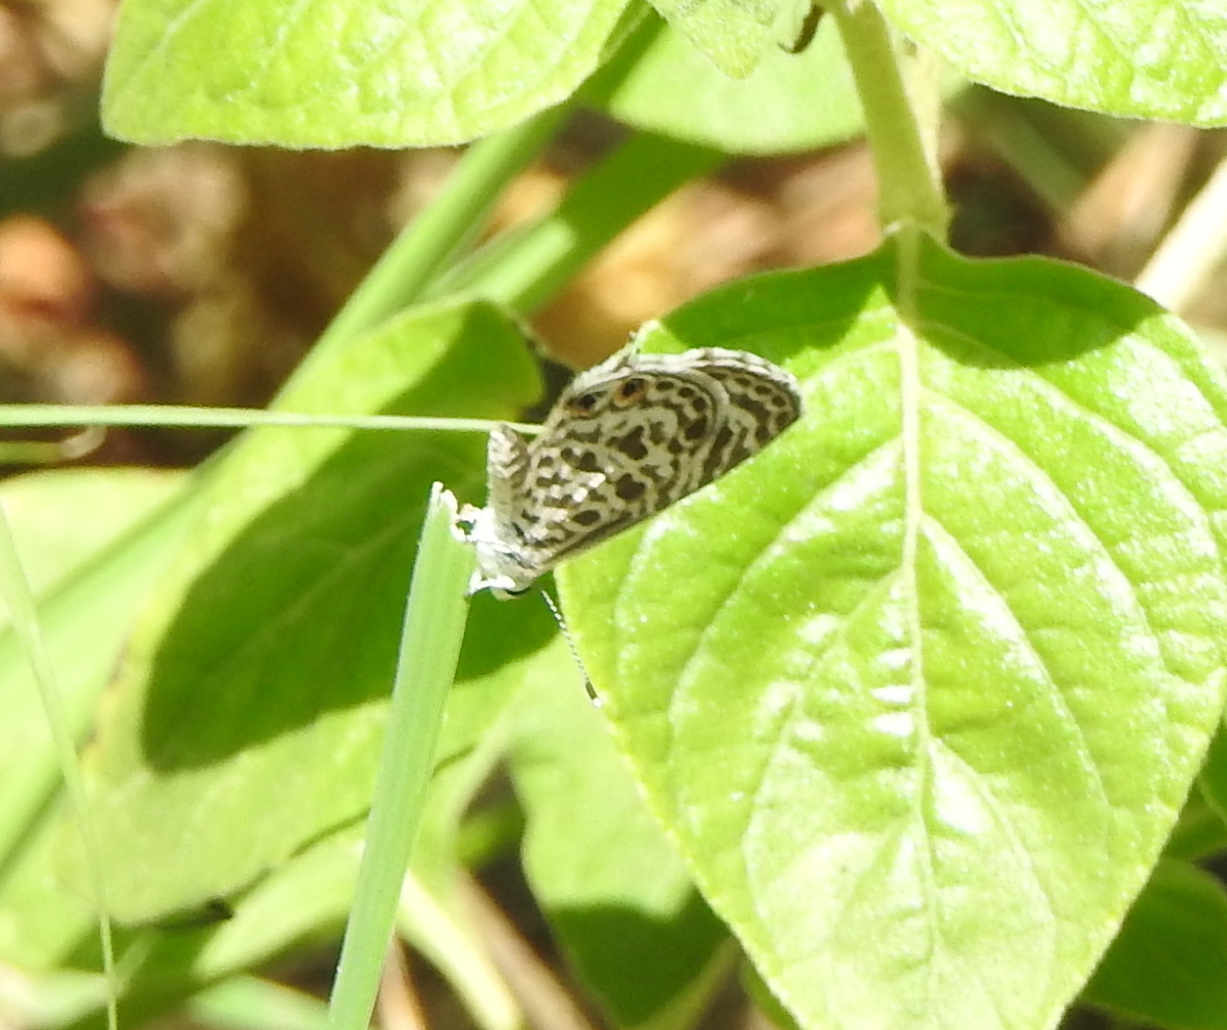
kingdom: Animalia
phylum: Arthropoda
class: Insecta
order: Lepidoptera
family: Lycaenidae
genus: Leptotes
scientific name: Leptotes plinius
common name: Zebra blue
